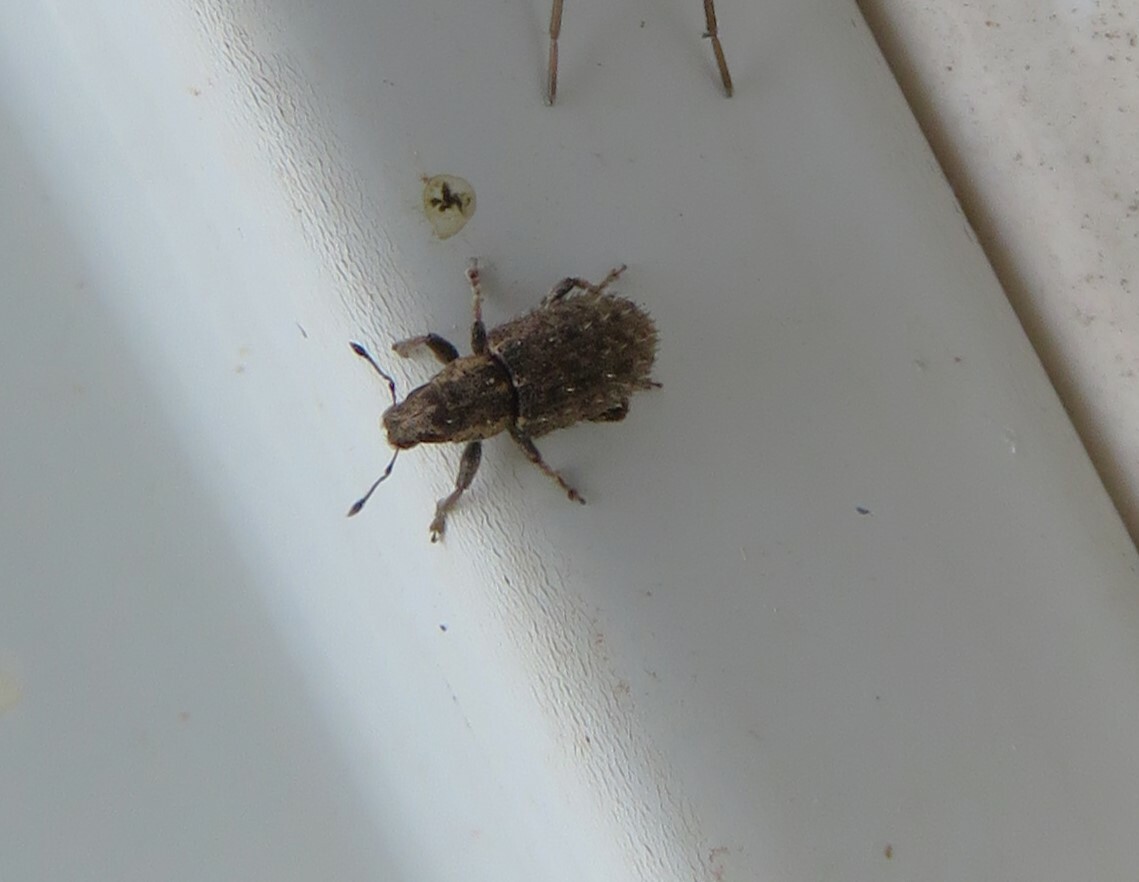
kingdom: Animalia
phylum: Arthropoda
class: Insecta
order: Coleoptera
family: Curculionidae
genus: Sitona
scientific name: Sitona hispidulus
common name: Clover weevil
